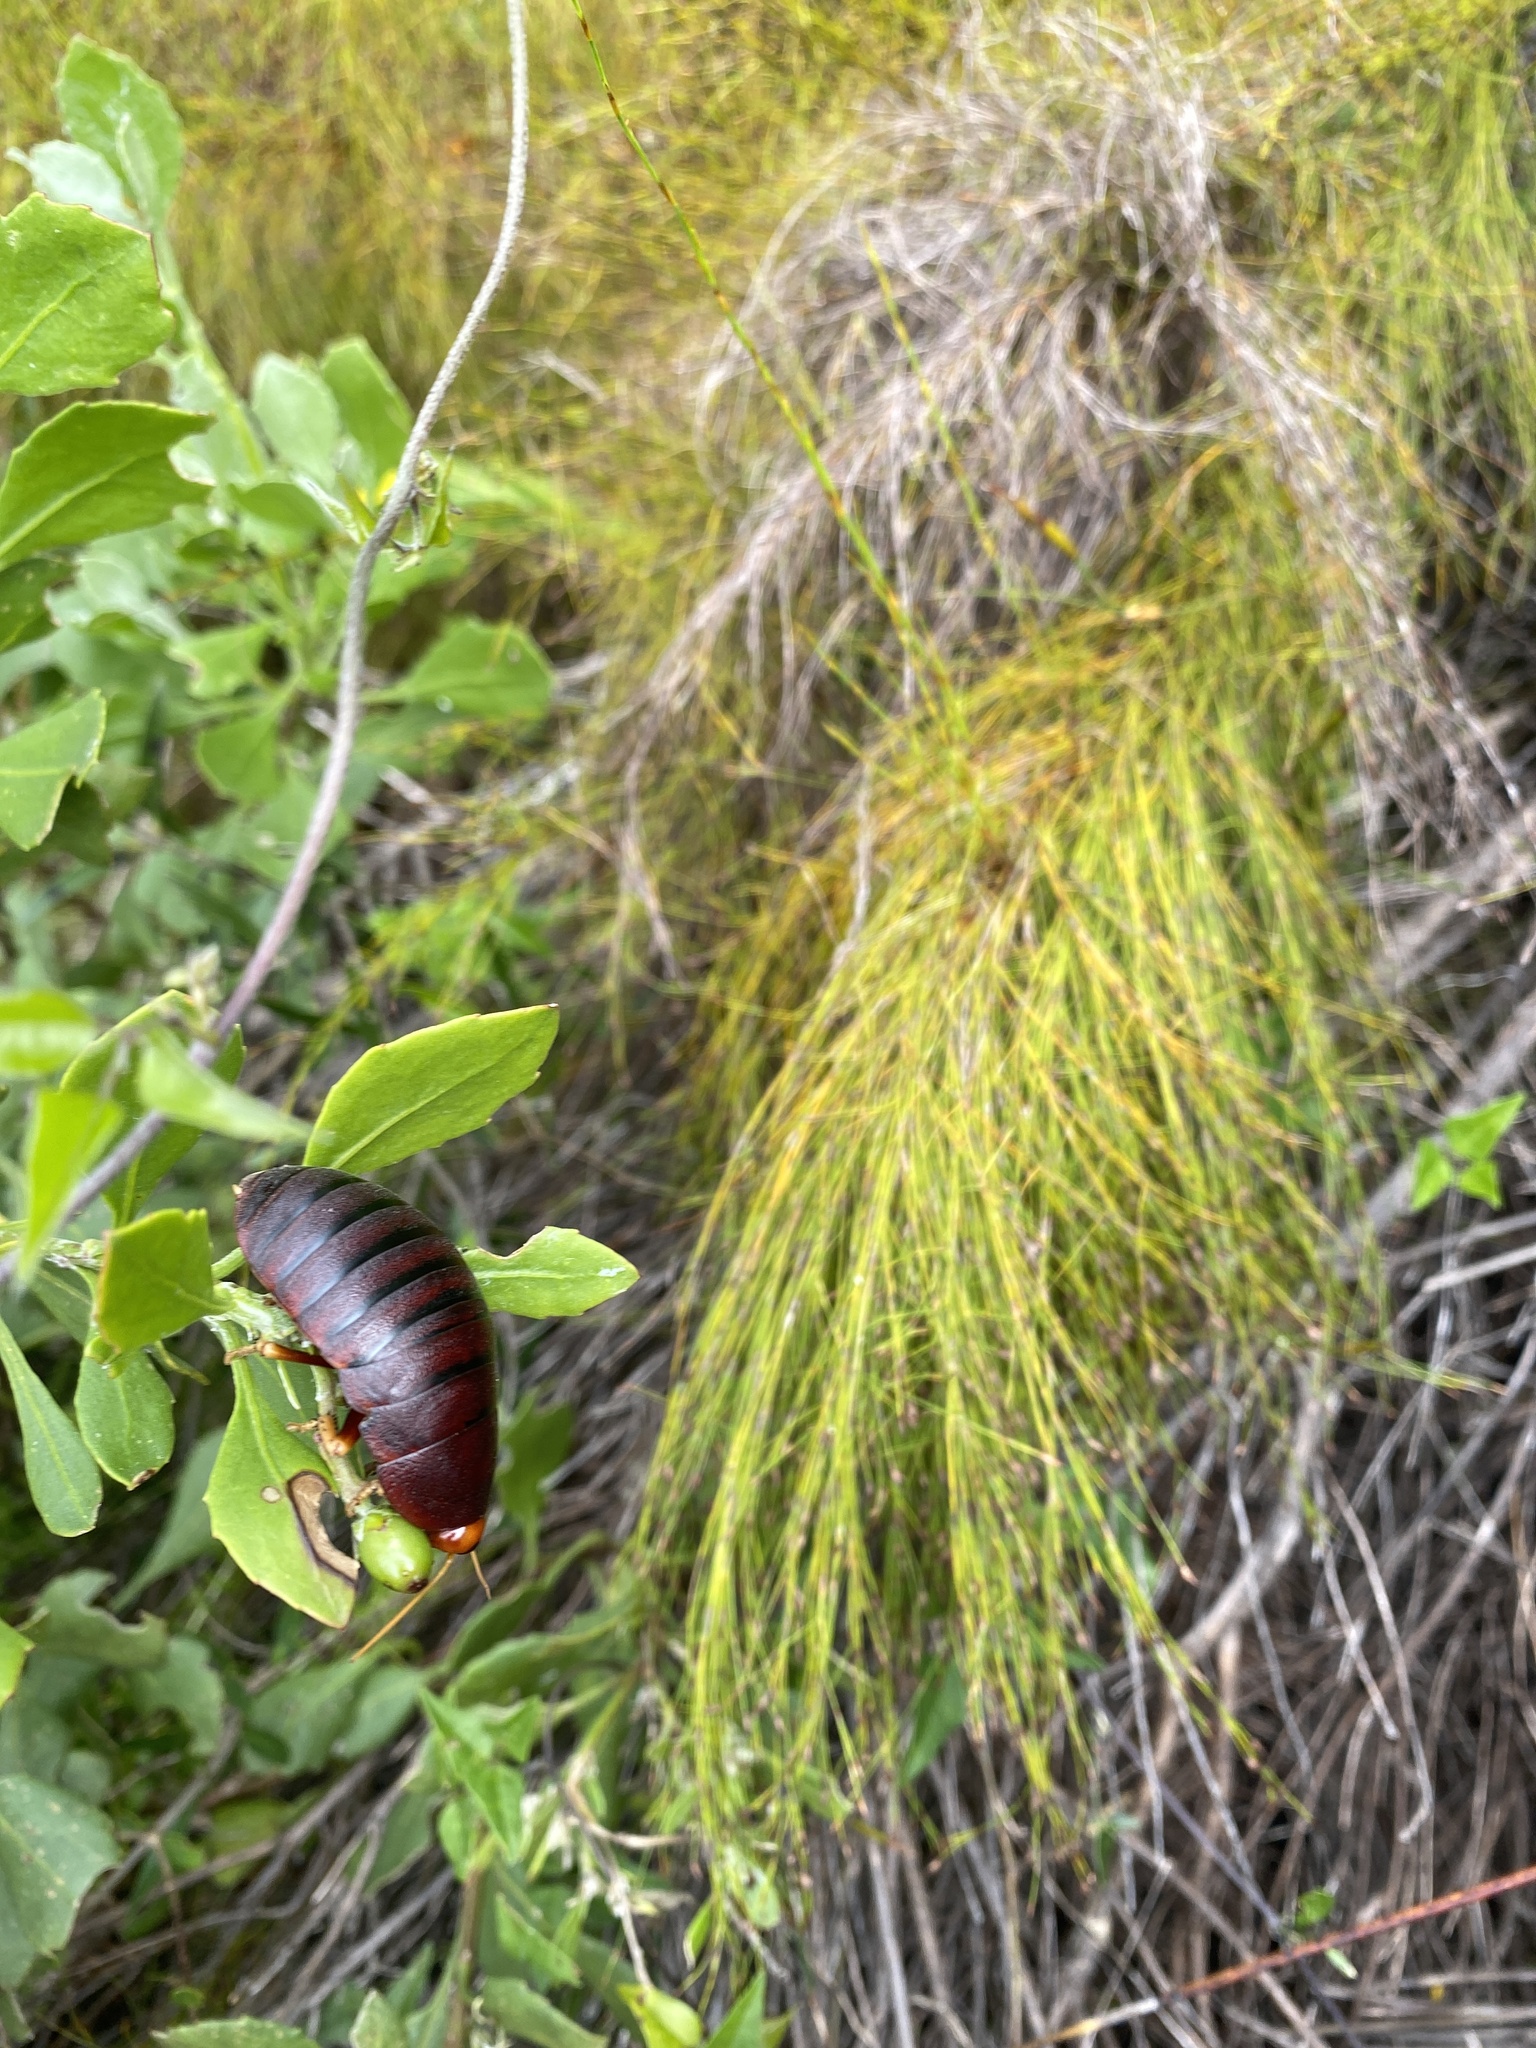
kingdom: Animalia
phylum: Arthropoda
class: Insecta
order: Blattodea
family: Blaberidae
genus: Aptera
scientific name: Aptera fusca
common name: Cape mountain cockroach
